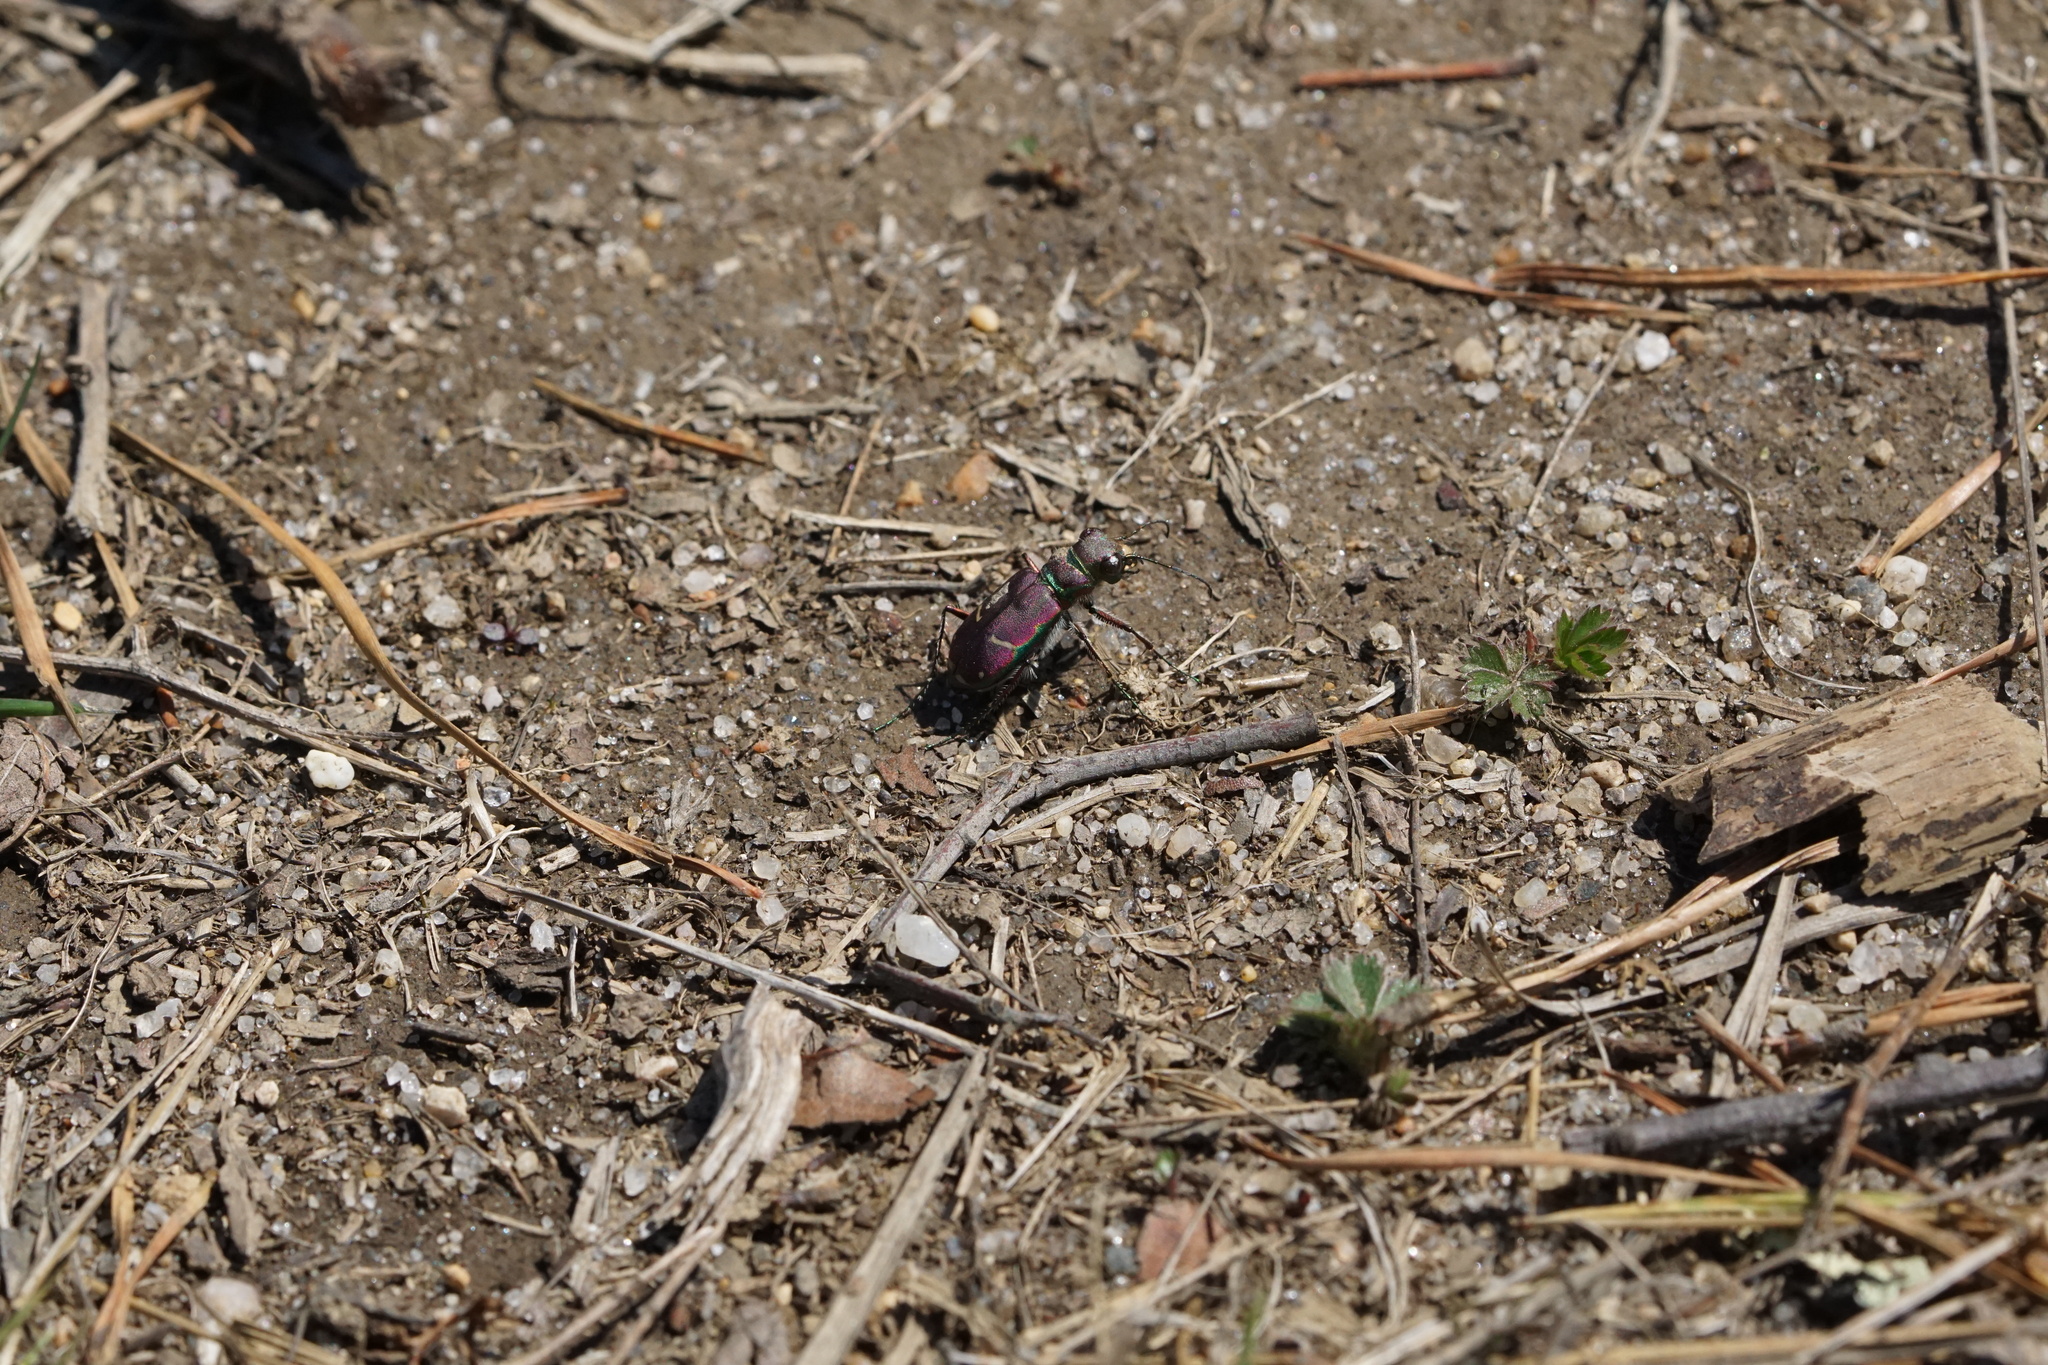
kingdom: Animalia
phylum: Arthropoda
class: Insecta
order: Coleoptera
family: Carabidae
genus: Cicindela
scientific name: Cicindela purpurea
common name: Cow path tiger beetle
